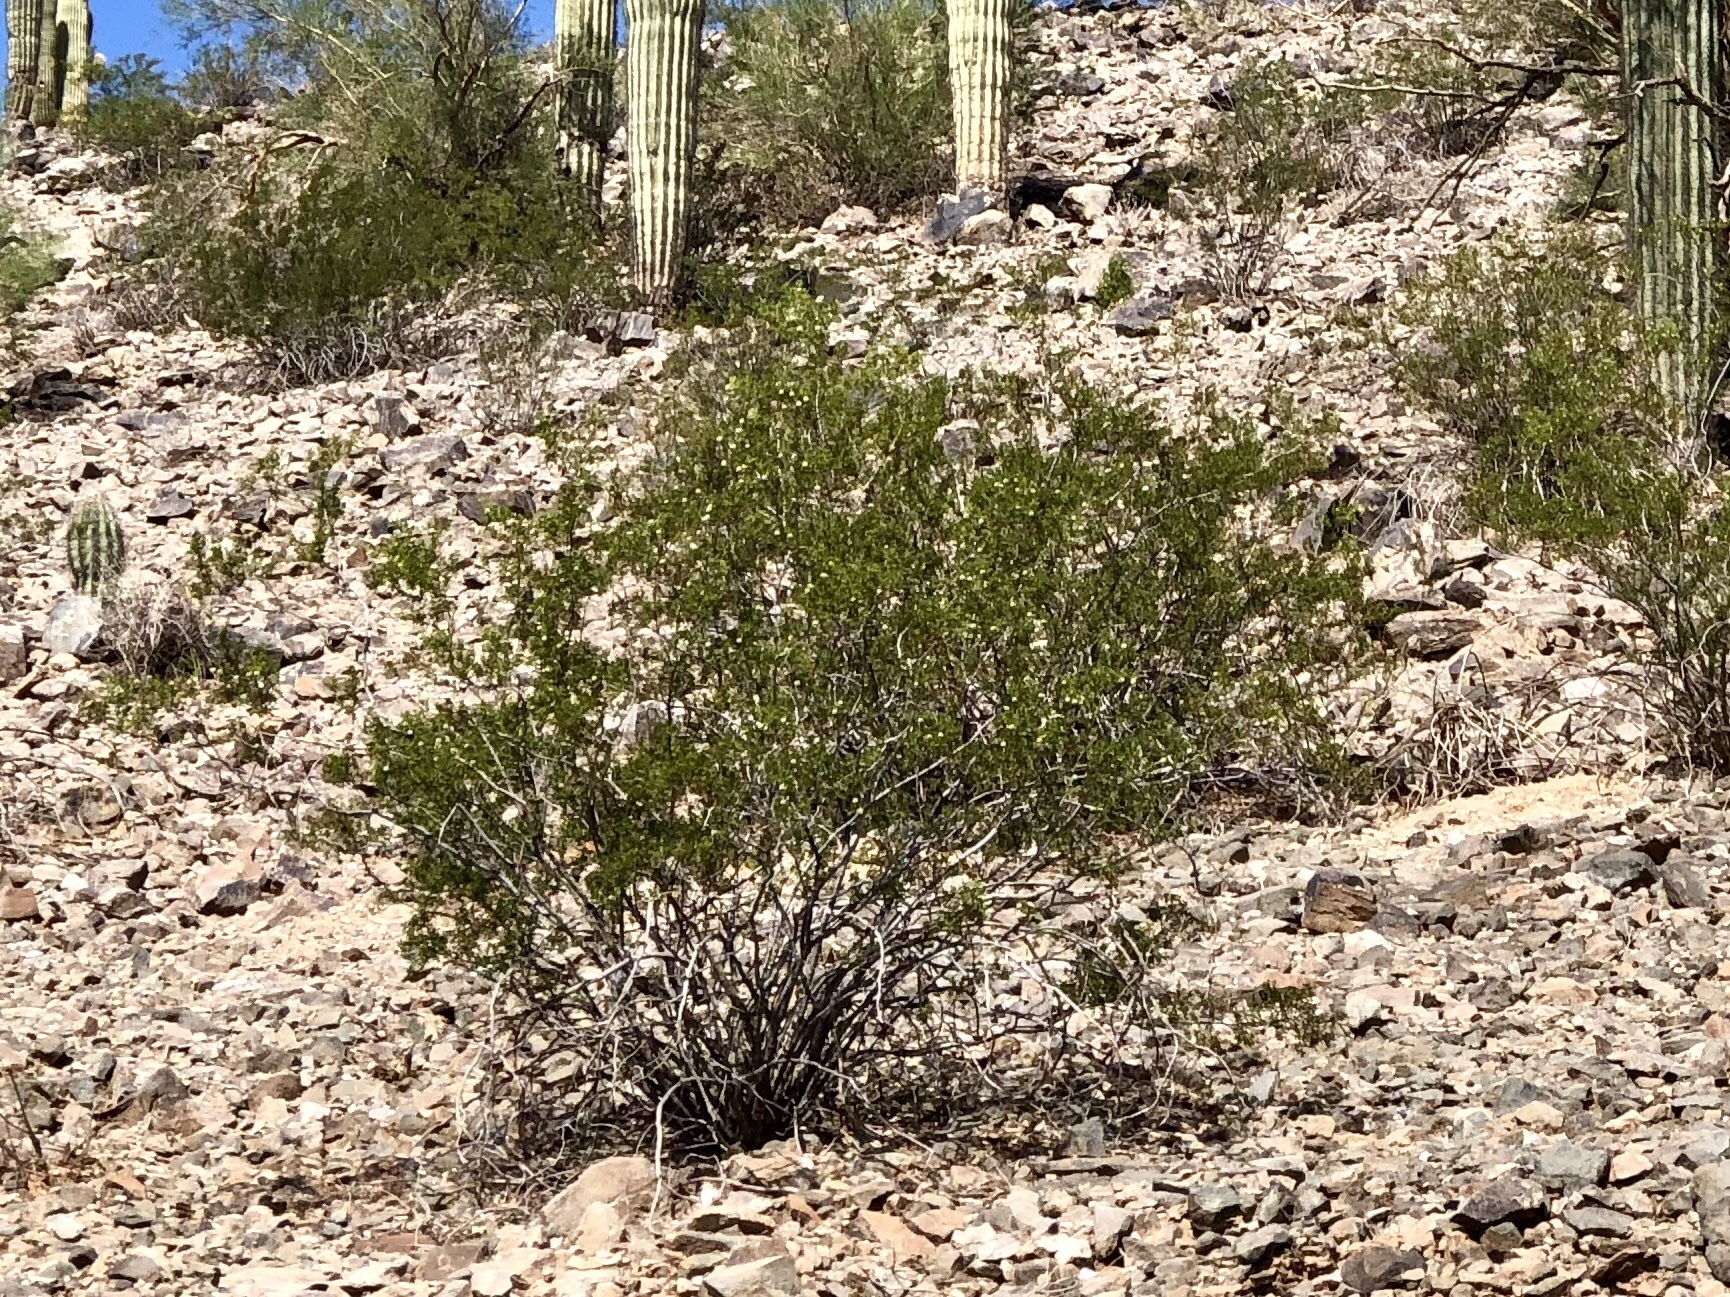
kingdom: Plantae
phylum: Tracheophyta
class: Magnoliopsida
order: Zygophyllales
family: Zygophyllaceae
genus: Larrea
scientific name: Larrea tridentata
